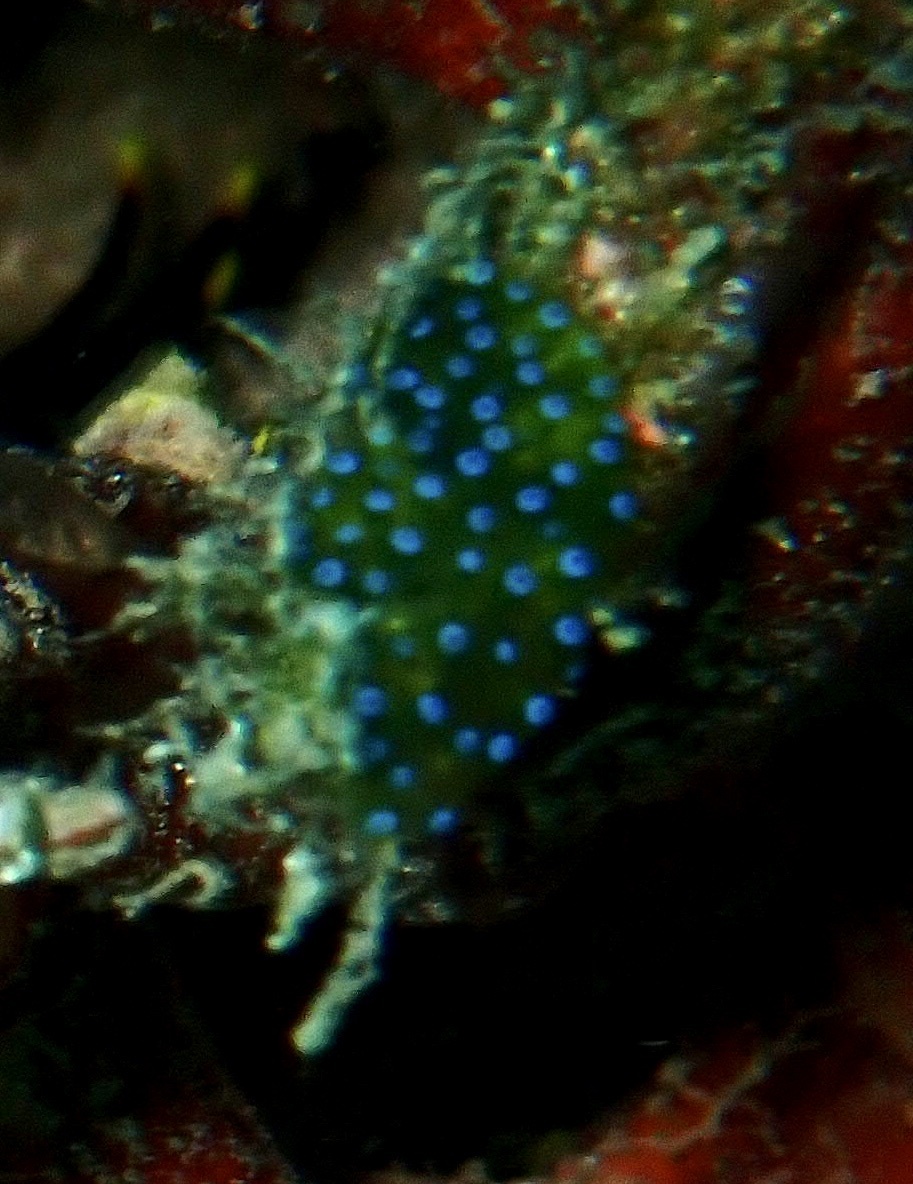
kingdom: Animalia
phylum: Chordata
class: Ascidiacea
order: Aplousobranchia
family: Didemnidae
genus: Diplosoma
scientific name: Diplosoma virens
